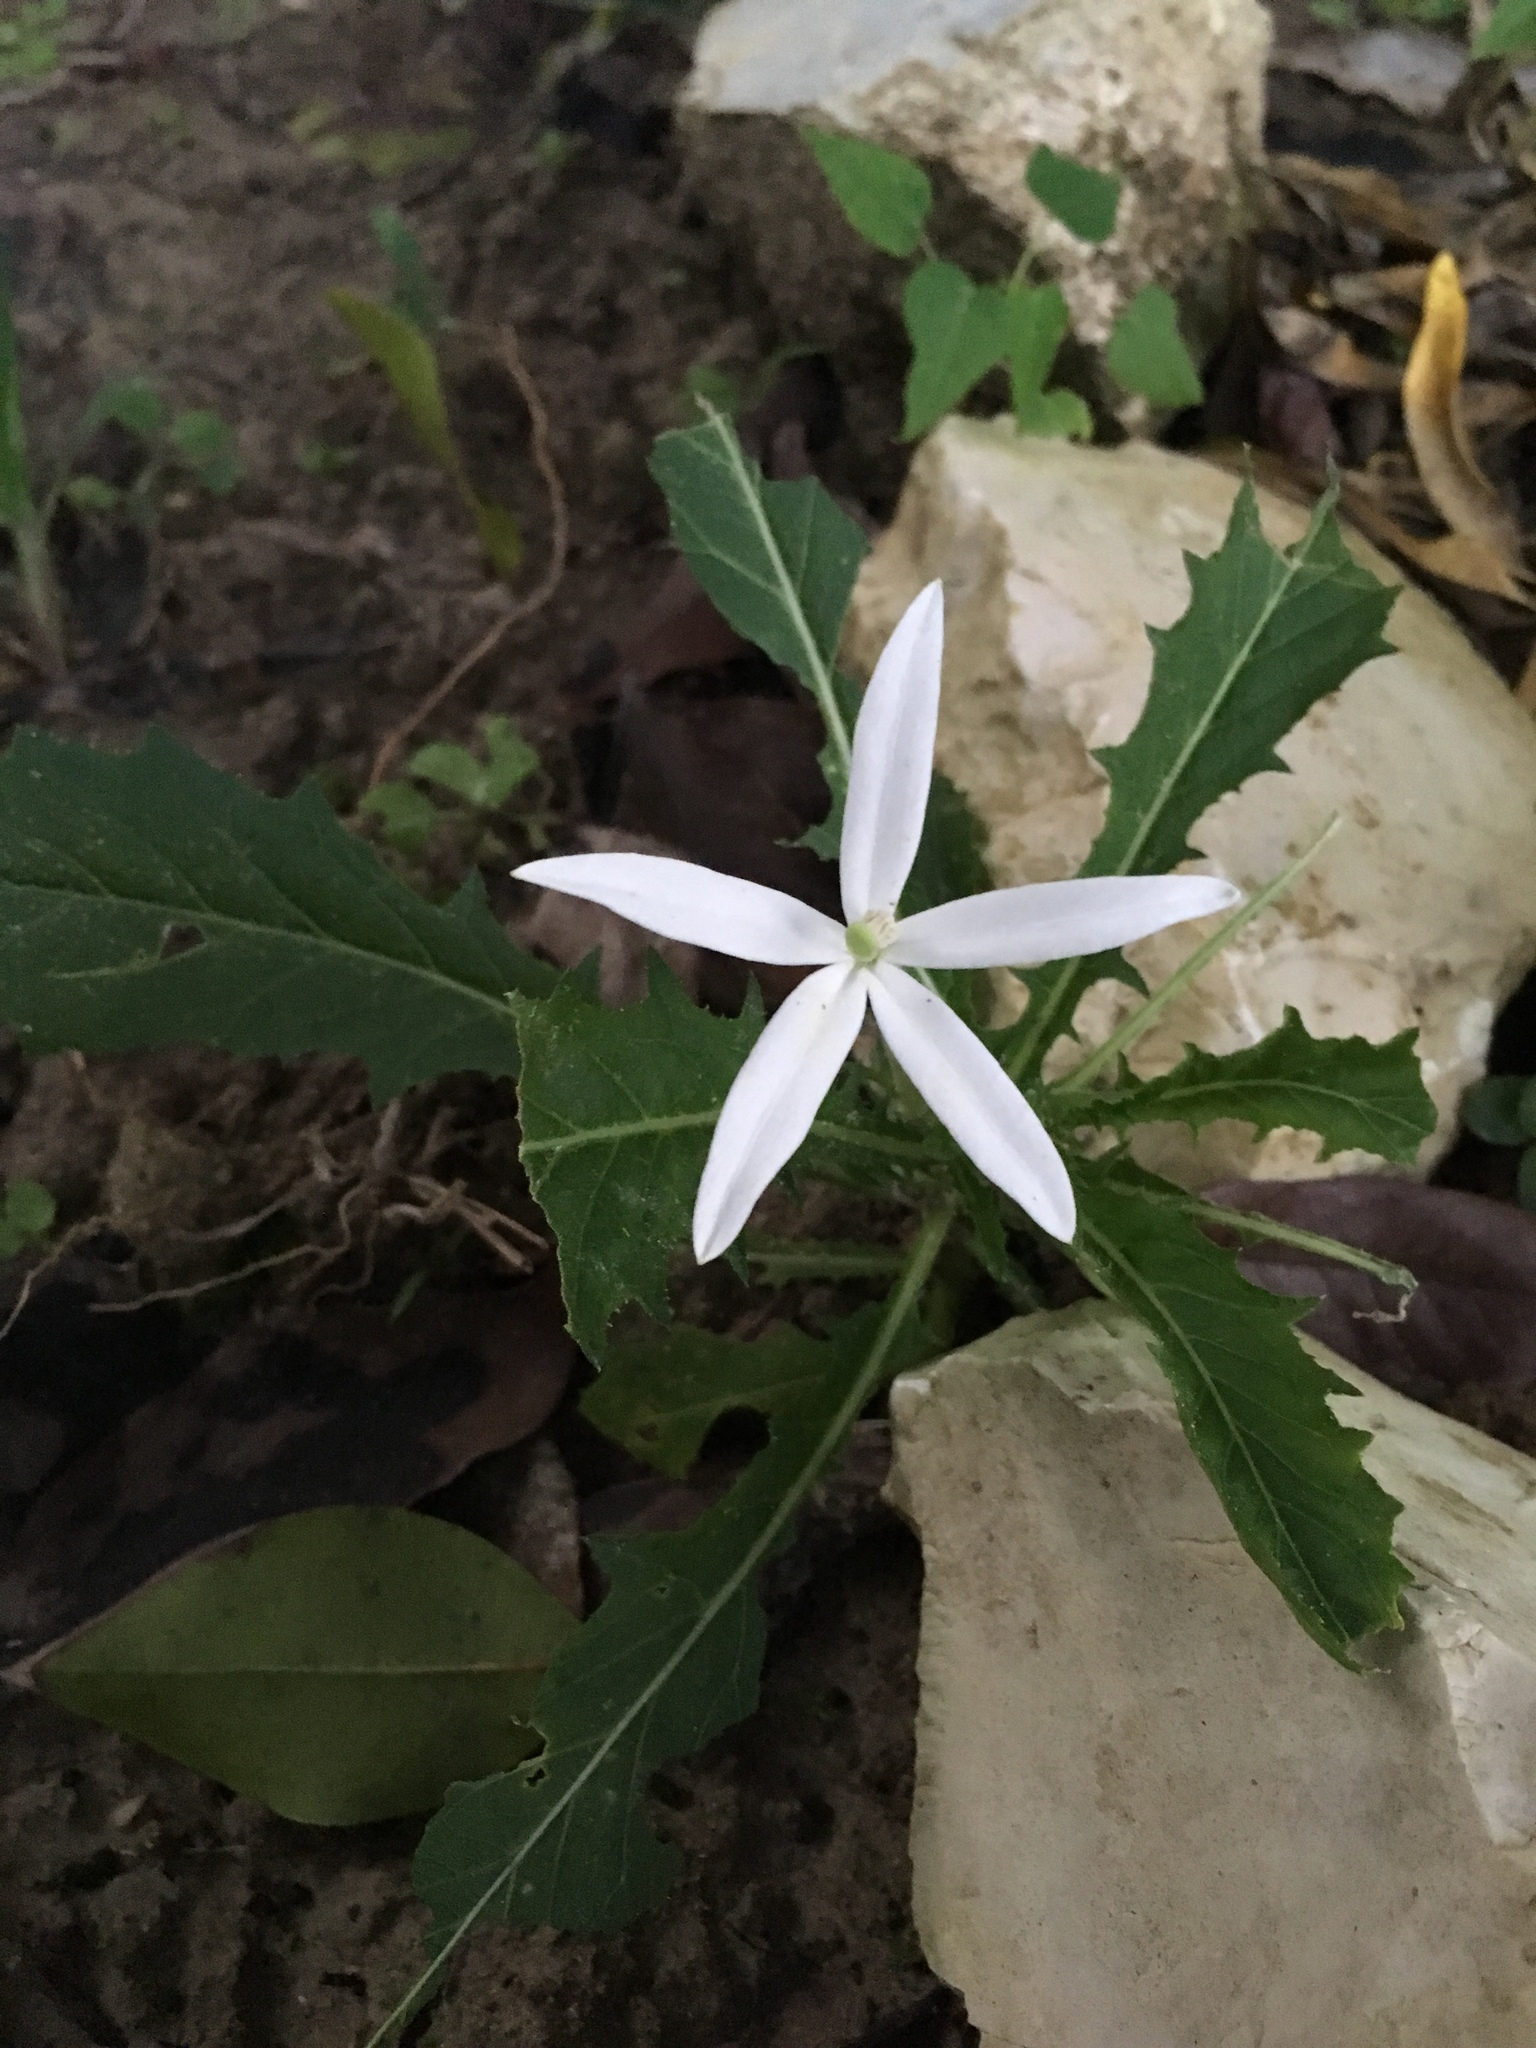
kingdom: Plantae
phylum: Tracheophyta
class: Magnoliopsida
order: Asterales
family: Campanulaceae
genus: Hippobroma
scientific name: Hippobroma longiflora
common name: Madamfate
